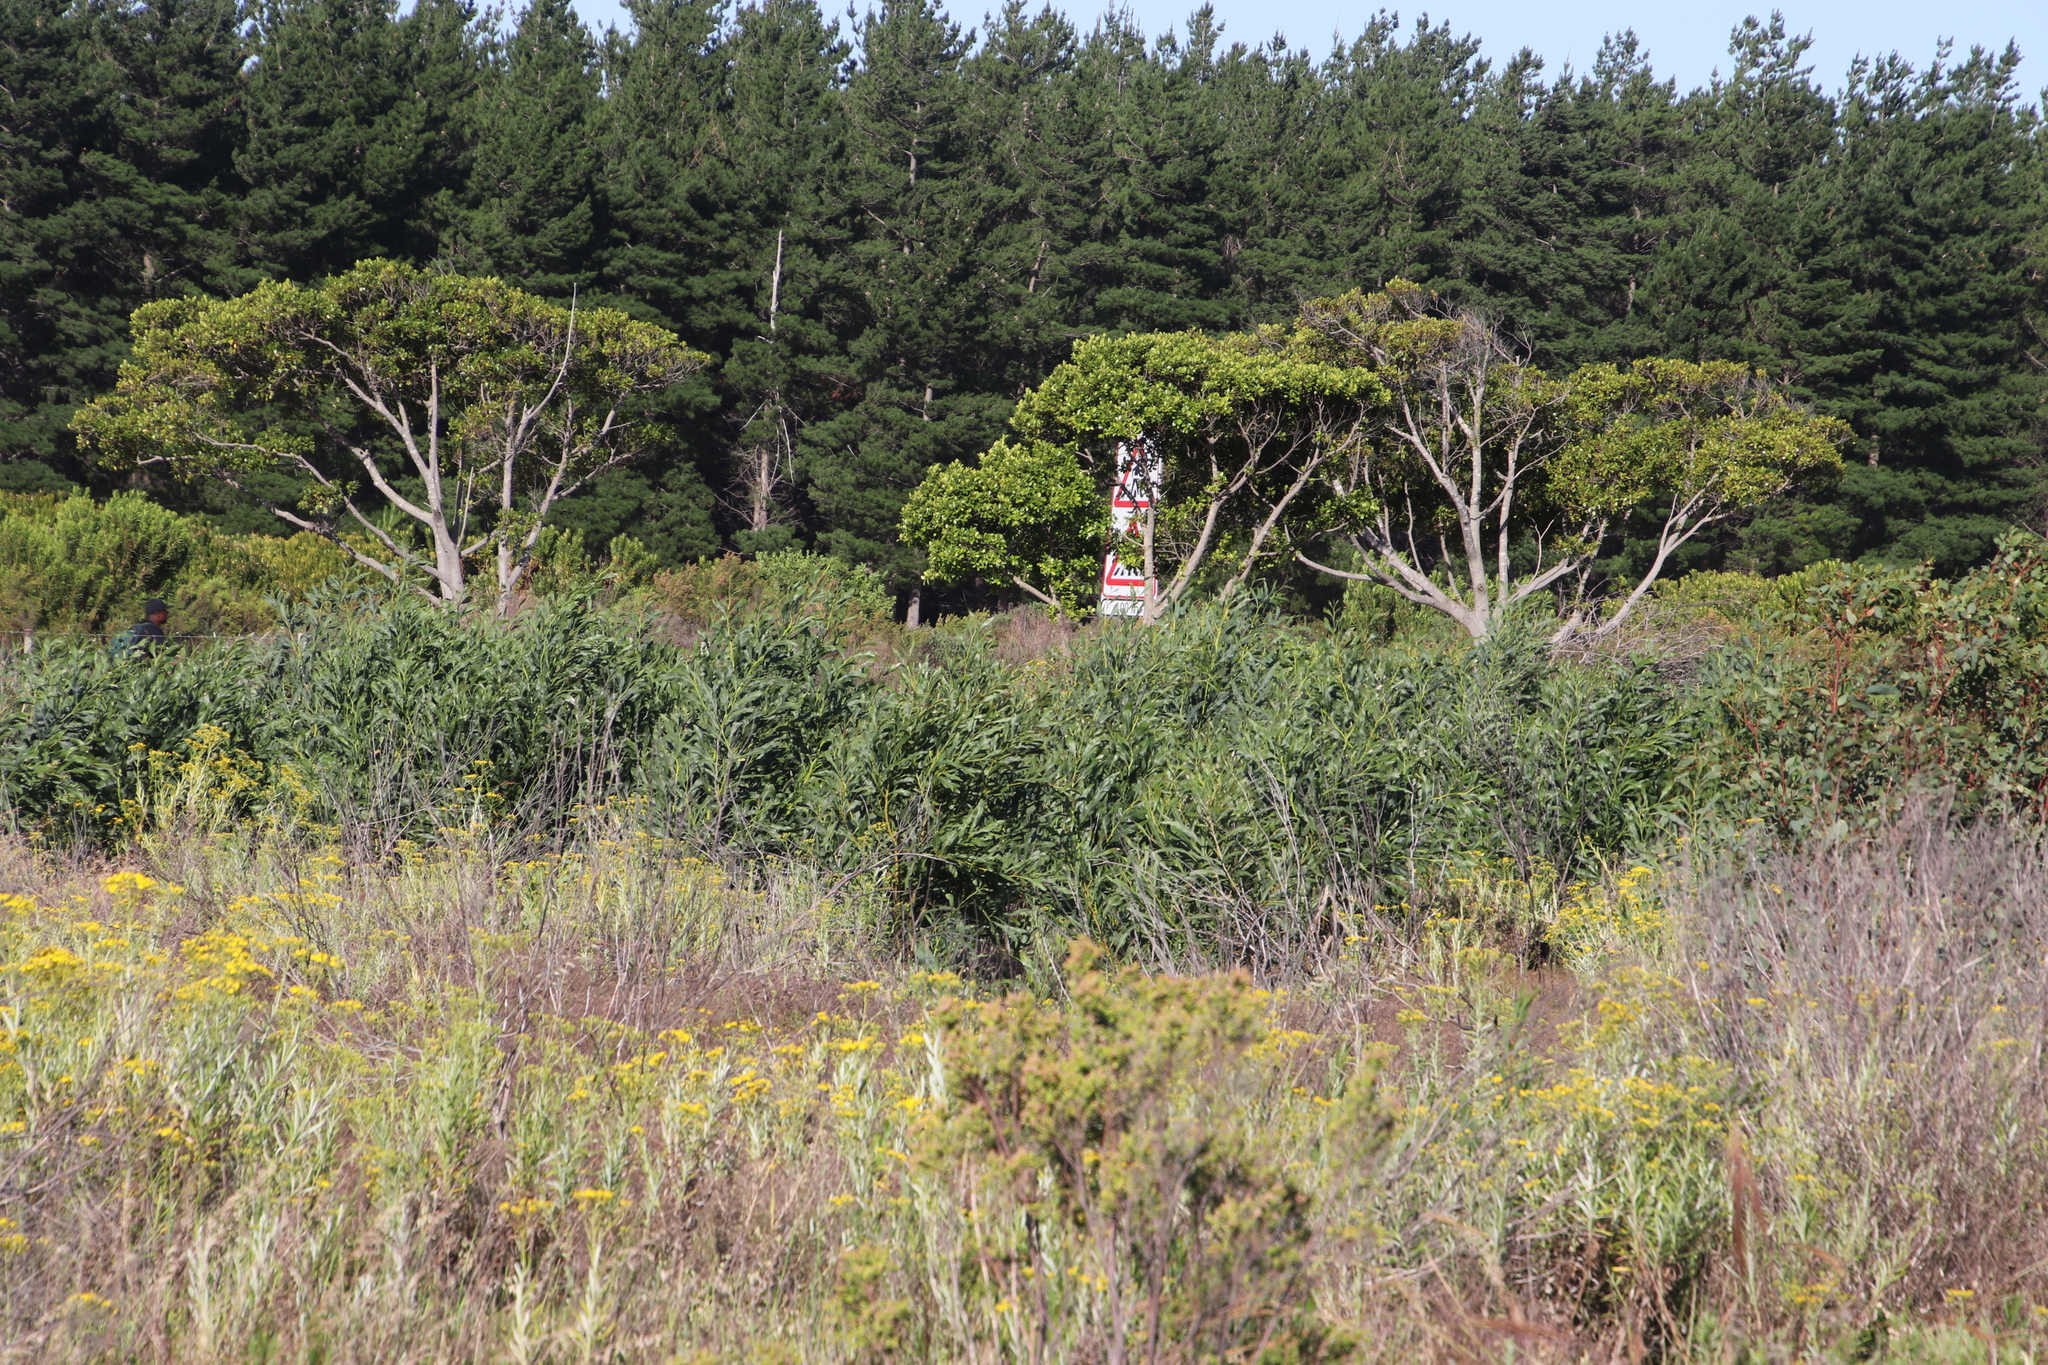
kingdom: Plantae
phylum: Tracheophyta
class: Magnoliopsida
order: Fabales
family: Fabaceae
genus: Acacia
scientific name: Acacia saligna
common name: Orange wattle
